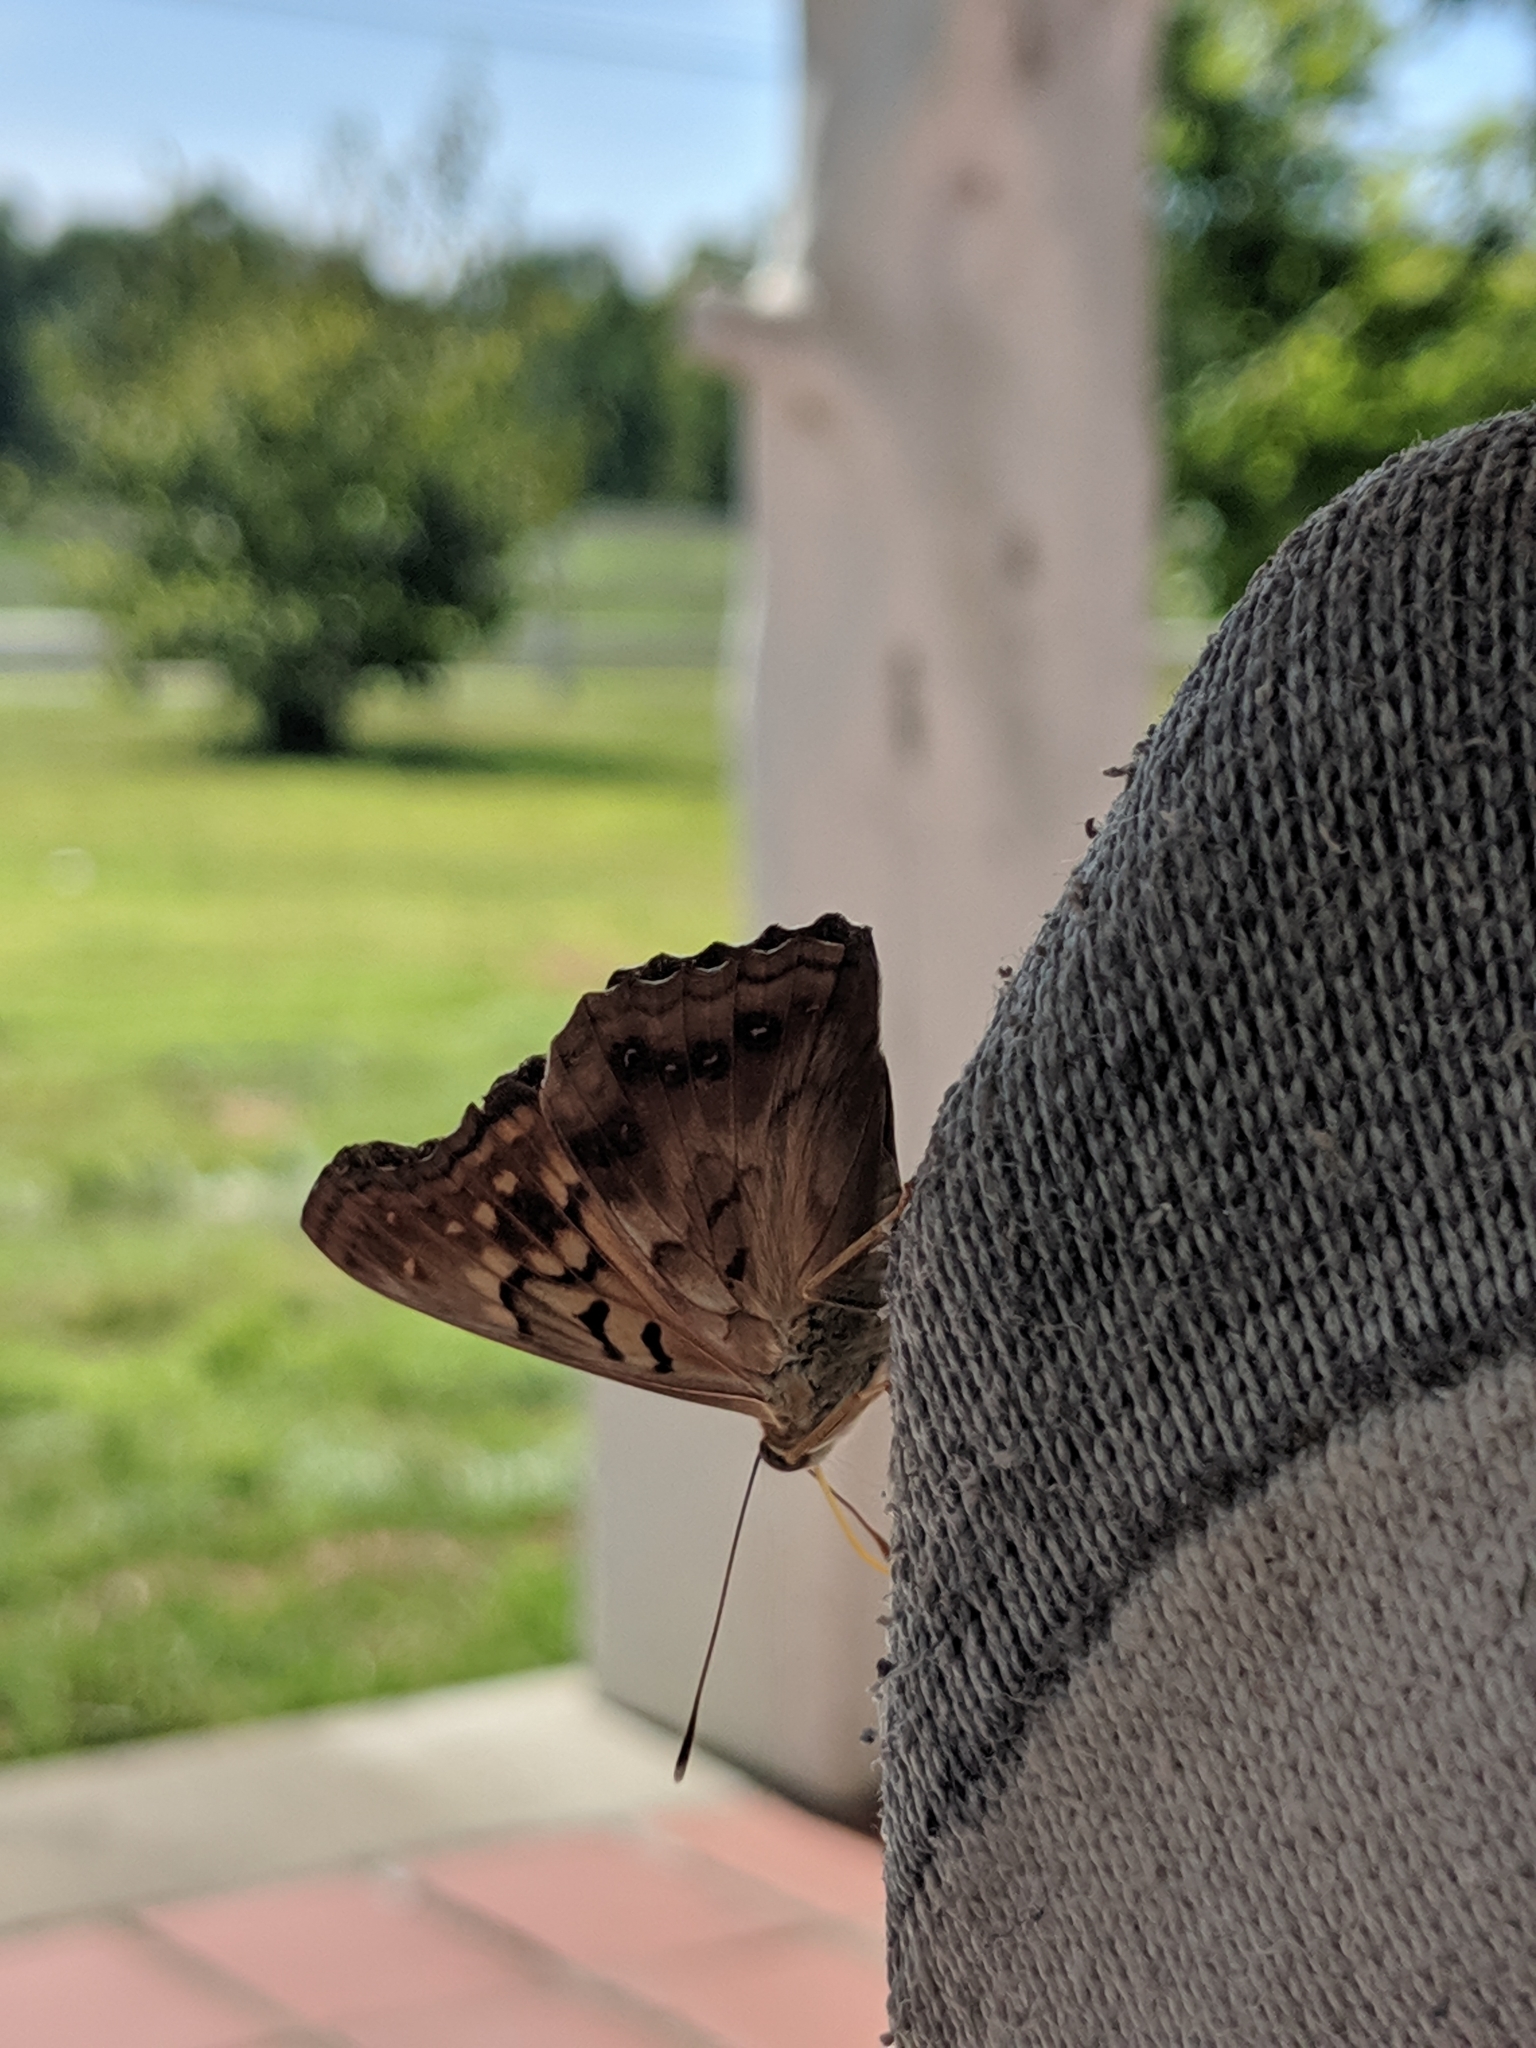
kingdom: Animalia
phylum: Arthropoda
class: Insecta
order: Lepidoptera
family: Nymphalidae
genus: Asterocampa
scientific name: Asterocampa clyton
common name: Tawny emperor
